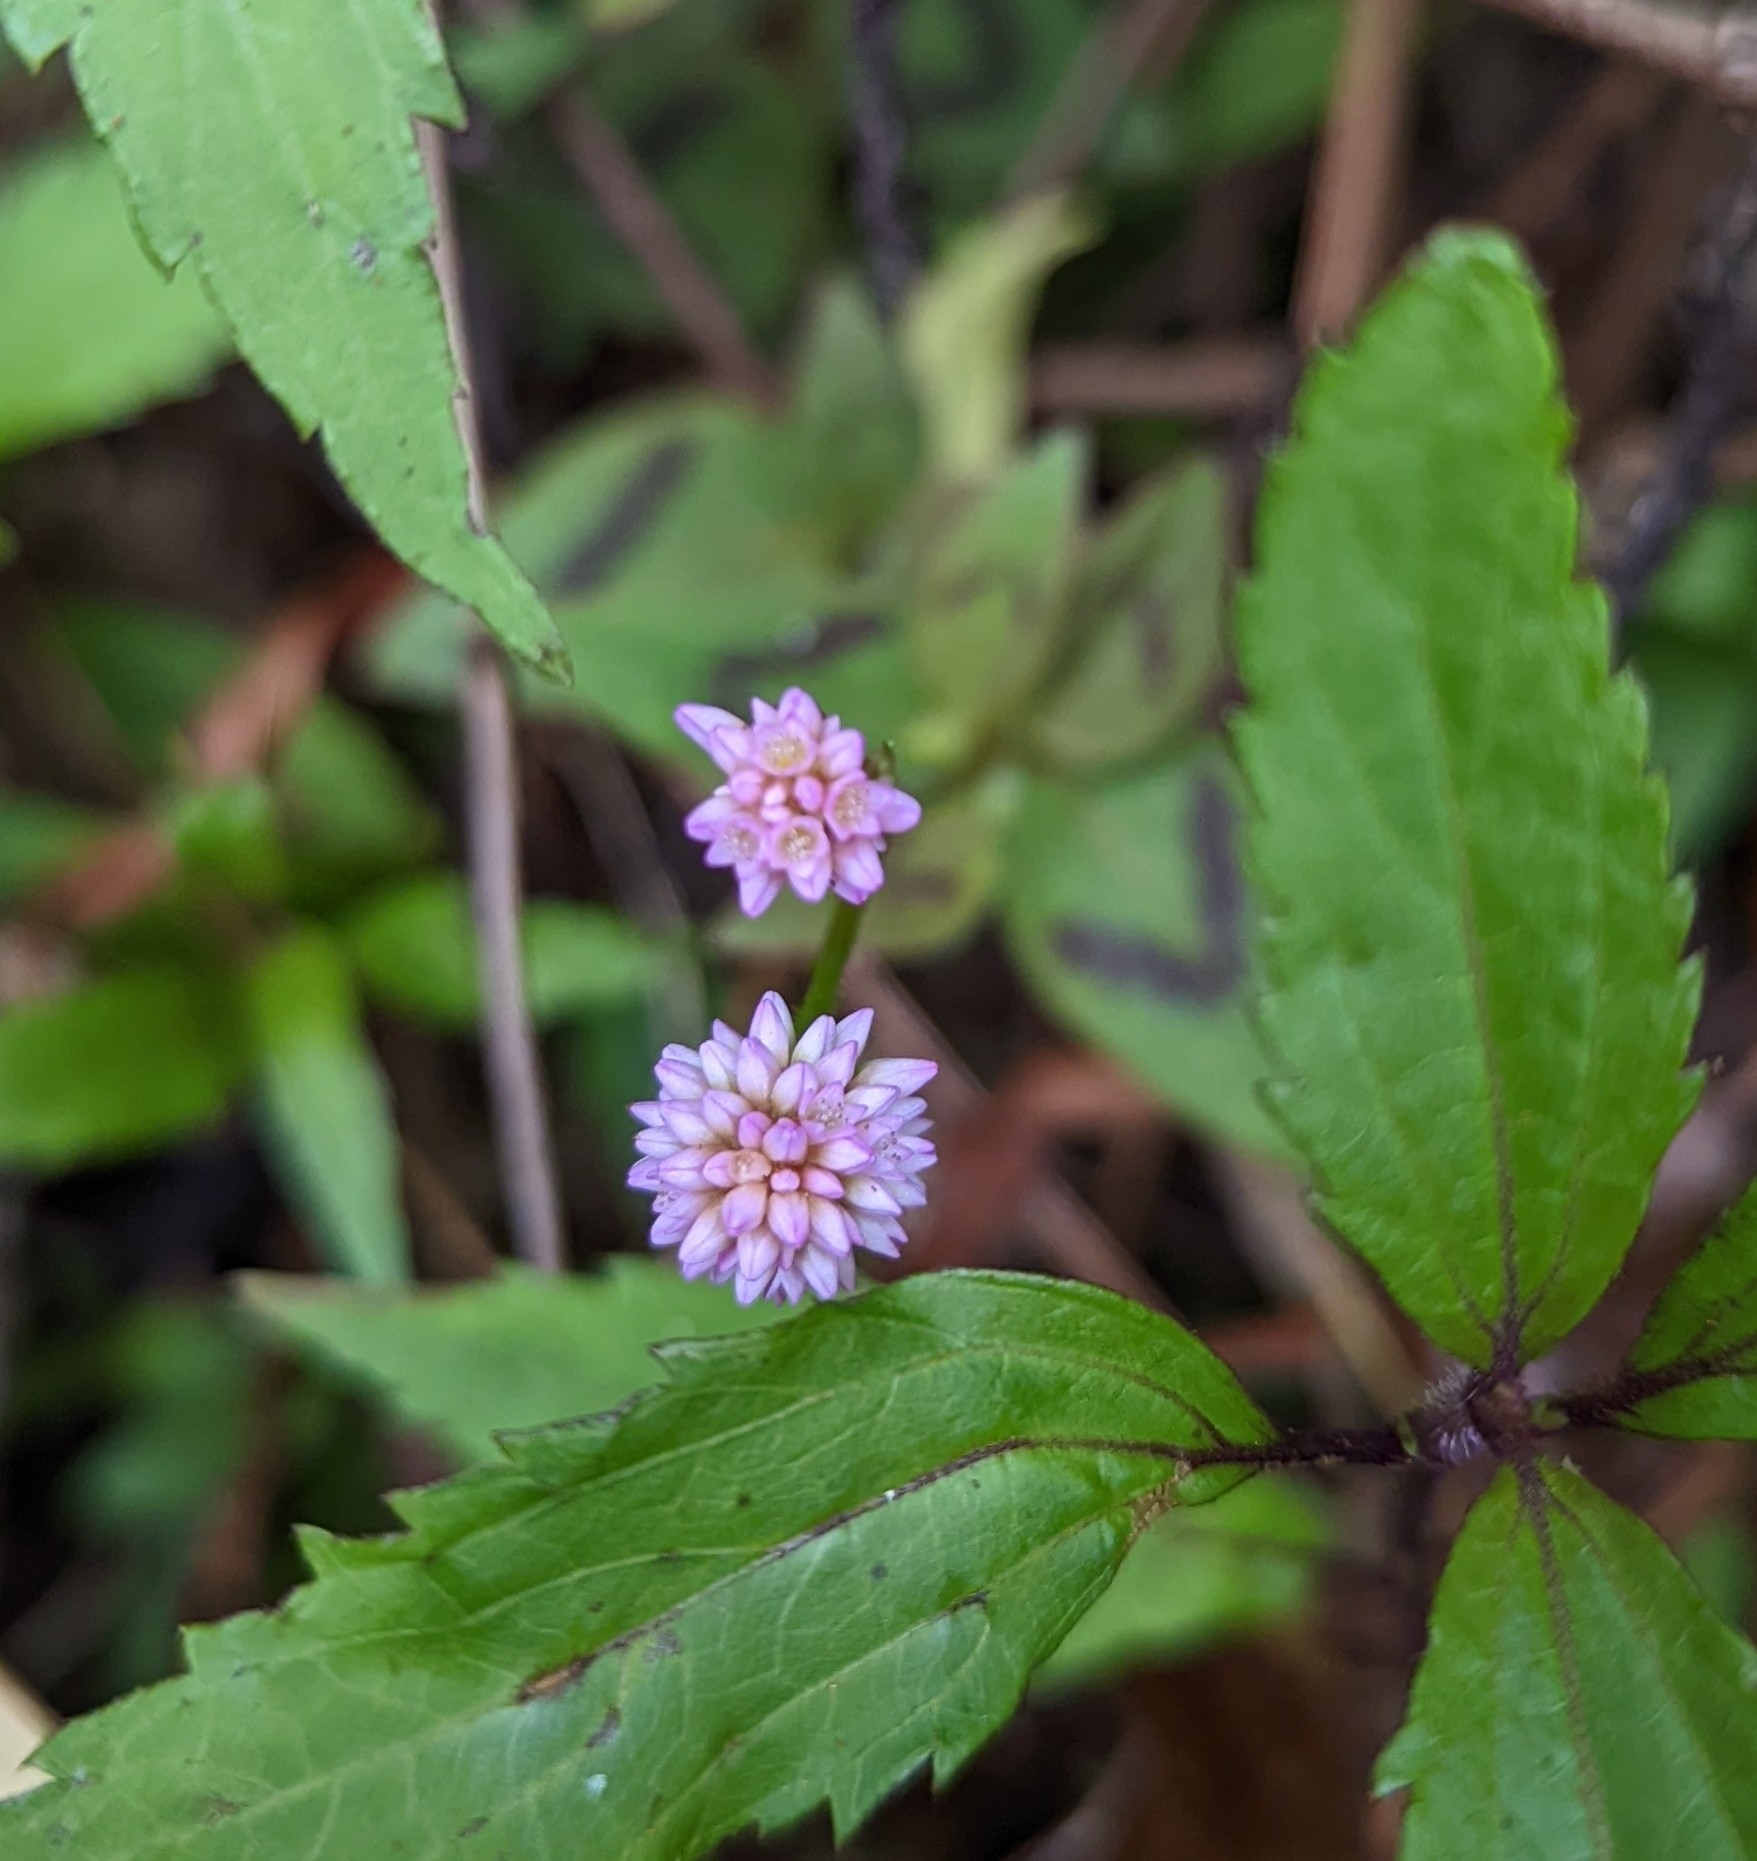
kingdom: Plantae
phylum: Tracheophyta
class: Magnoliopsida
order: Caryophyllales
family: Polygonaceae
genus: Persicaria
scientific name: Persicaria capitata
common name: Pinkhead smartweed
